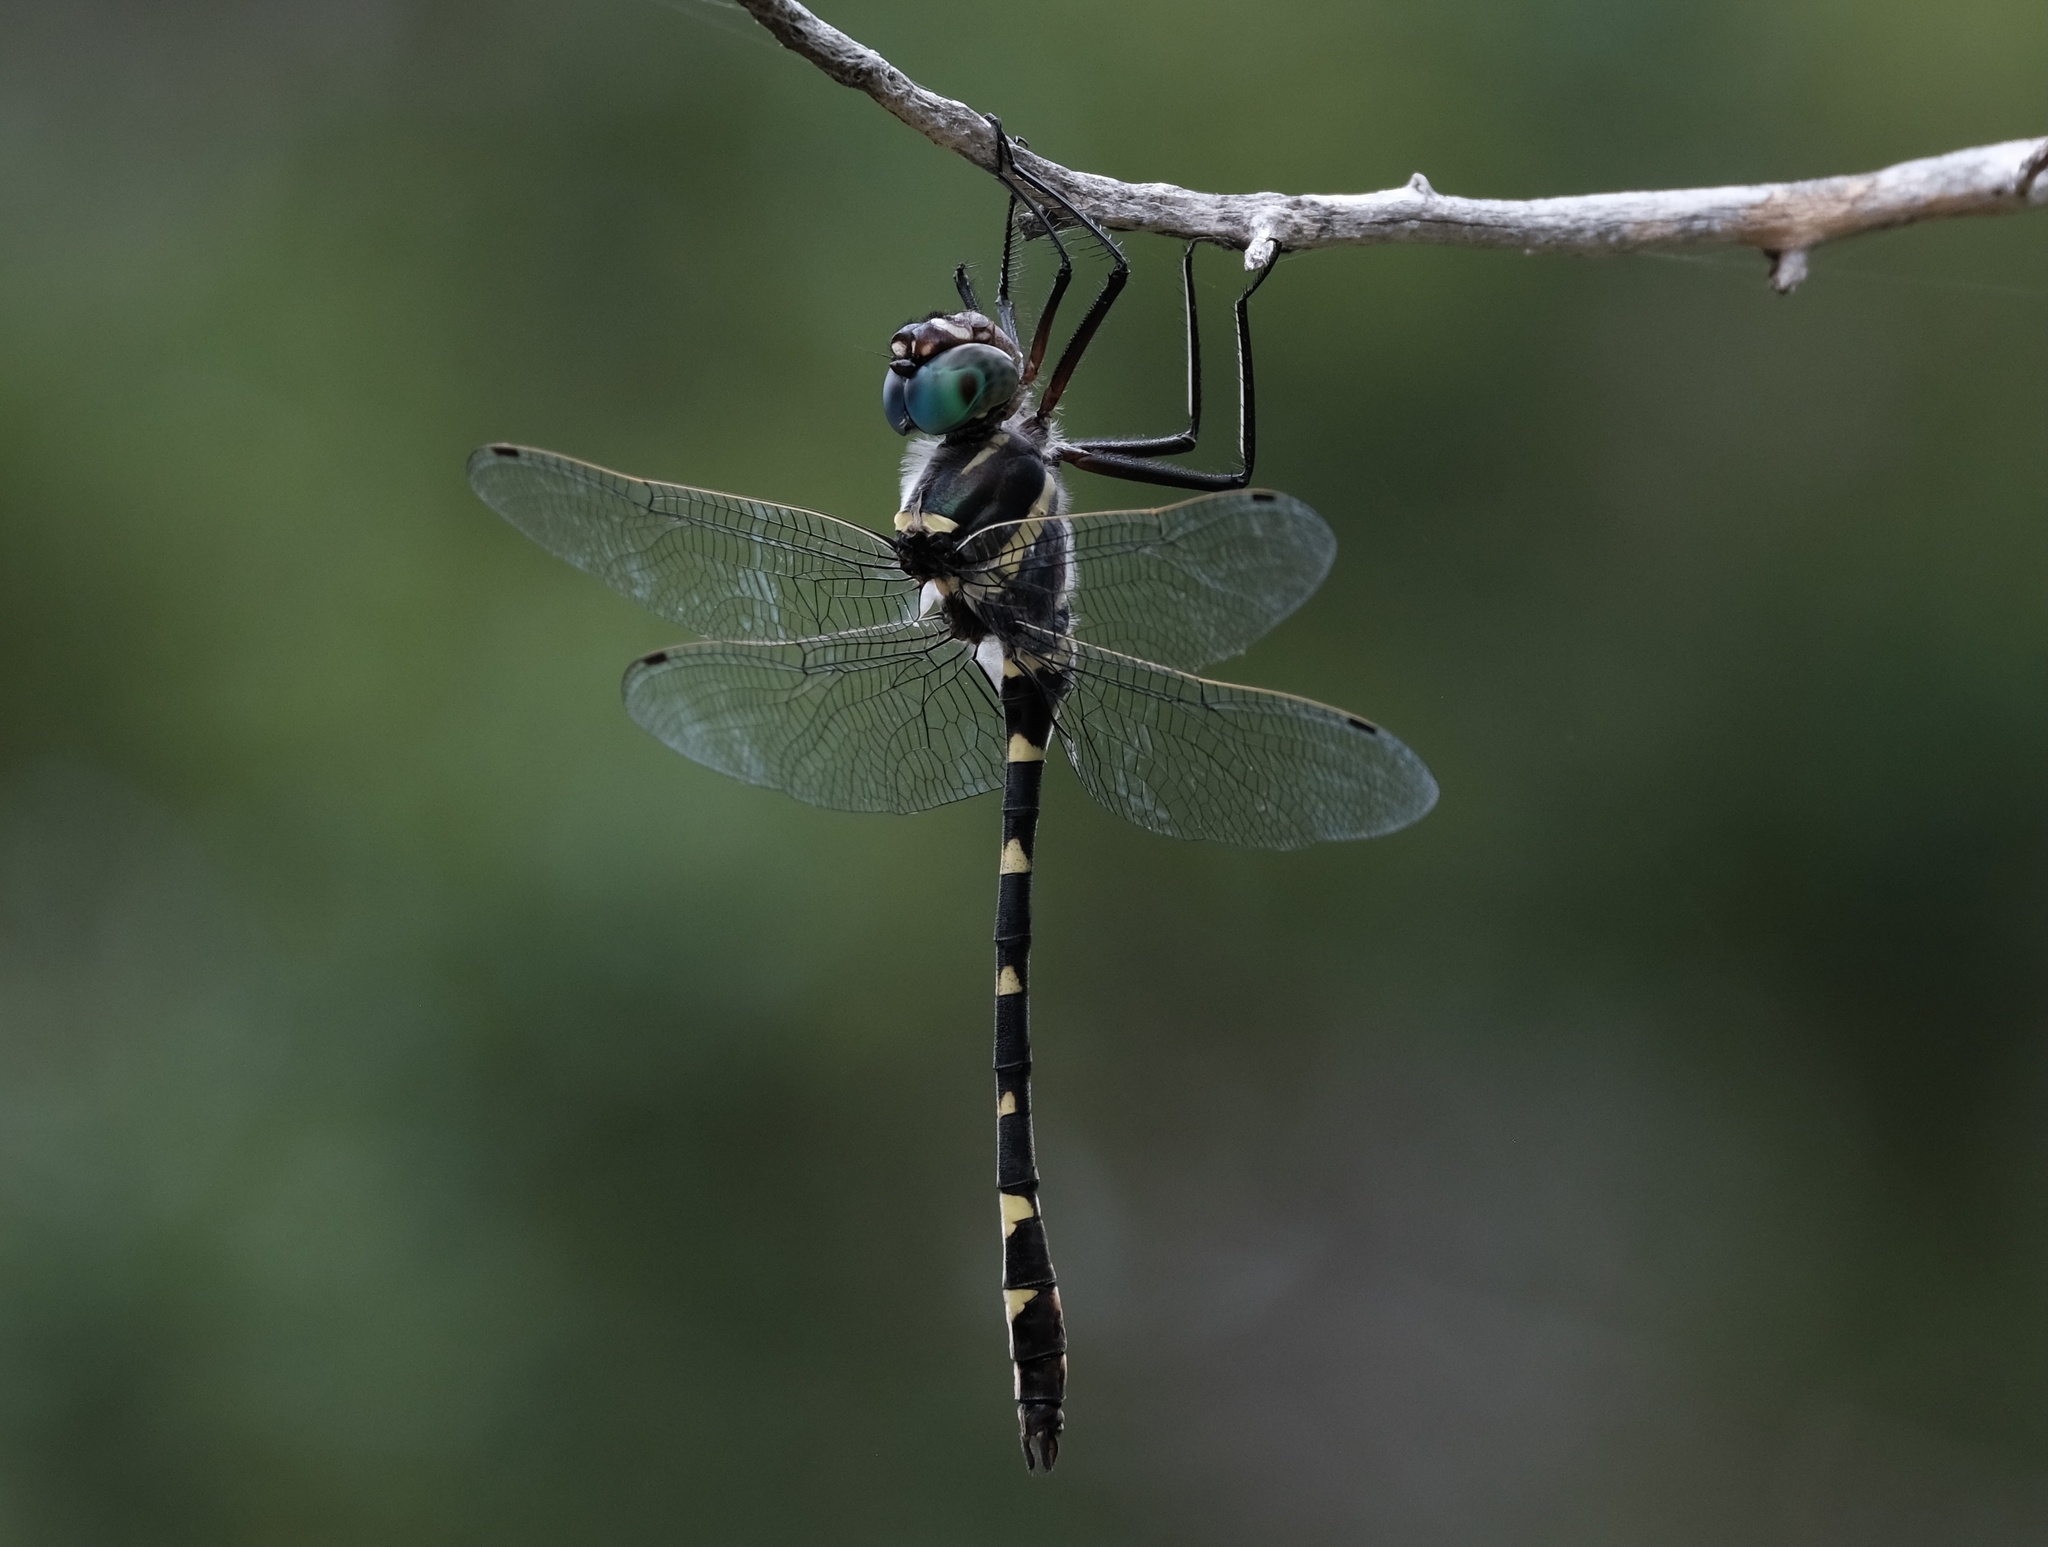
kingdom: Animalia
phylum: Arthropoda
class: Insecta
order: Odonata
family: Macromiidae
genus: Macromia
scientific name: Macromia illinoiensis
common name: Swift river cruiser
